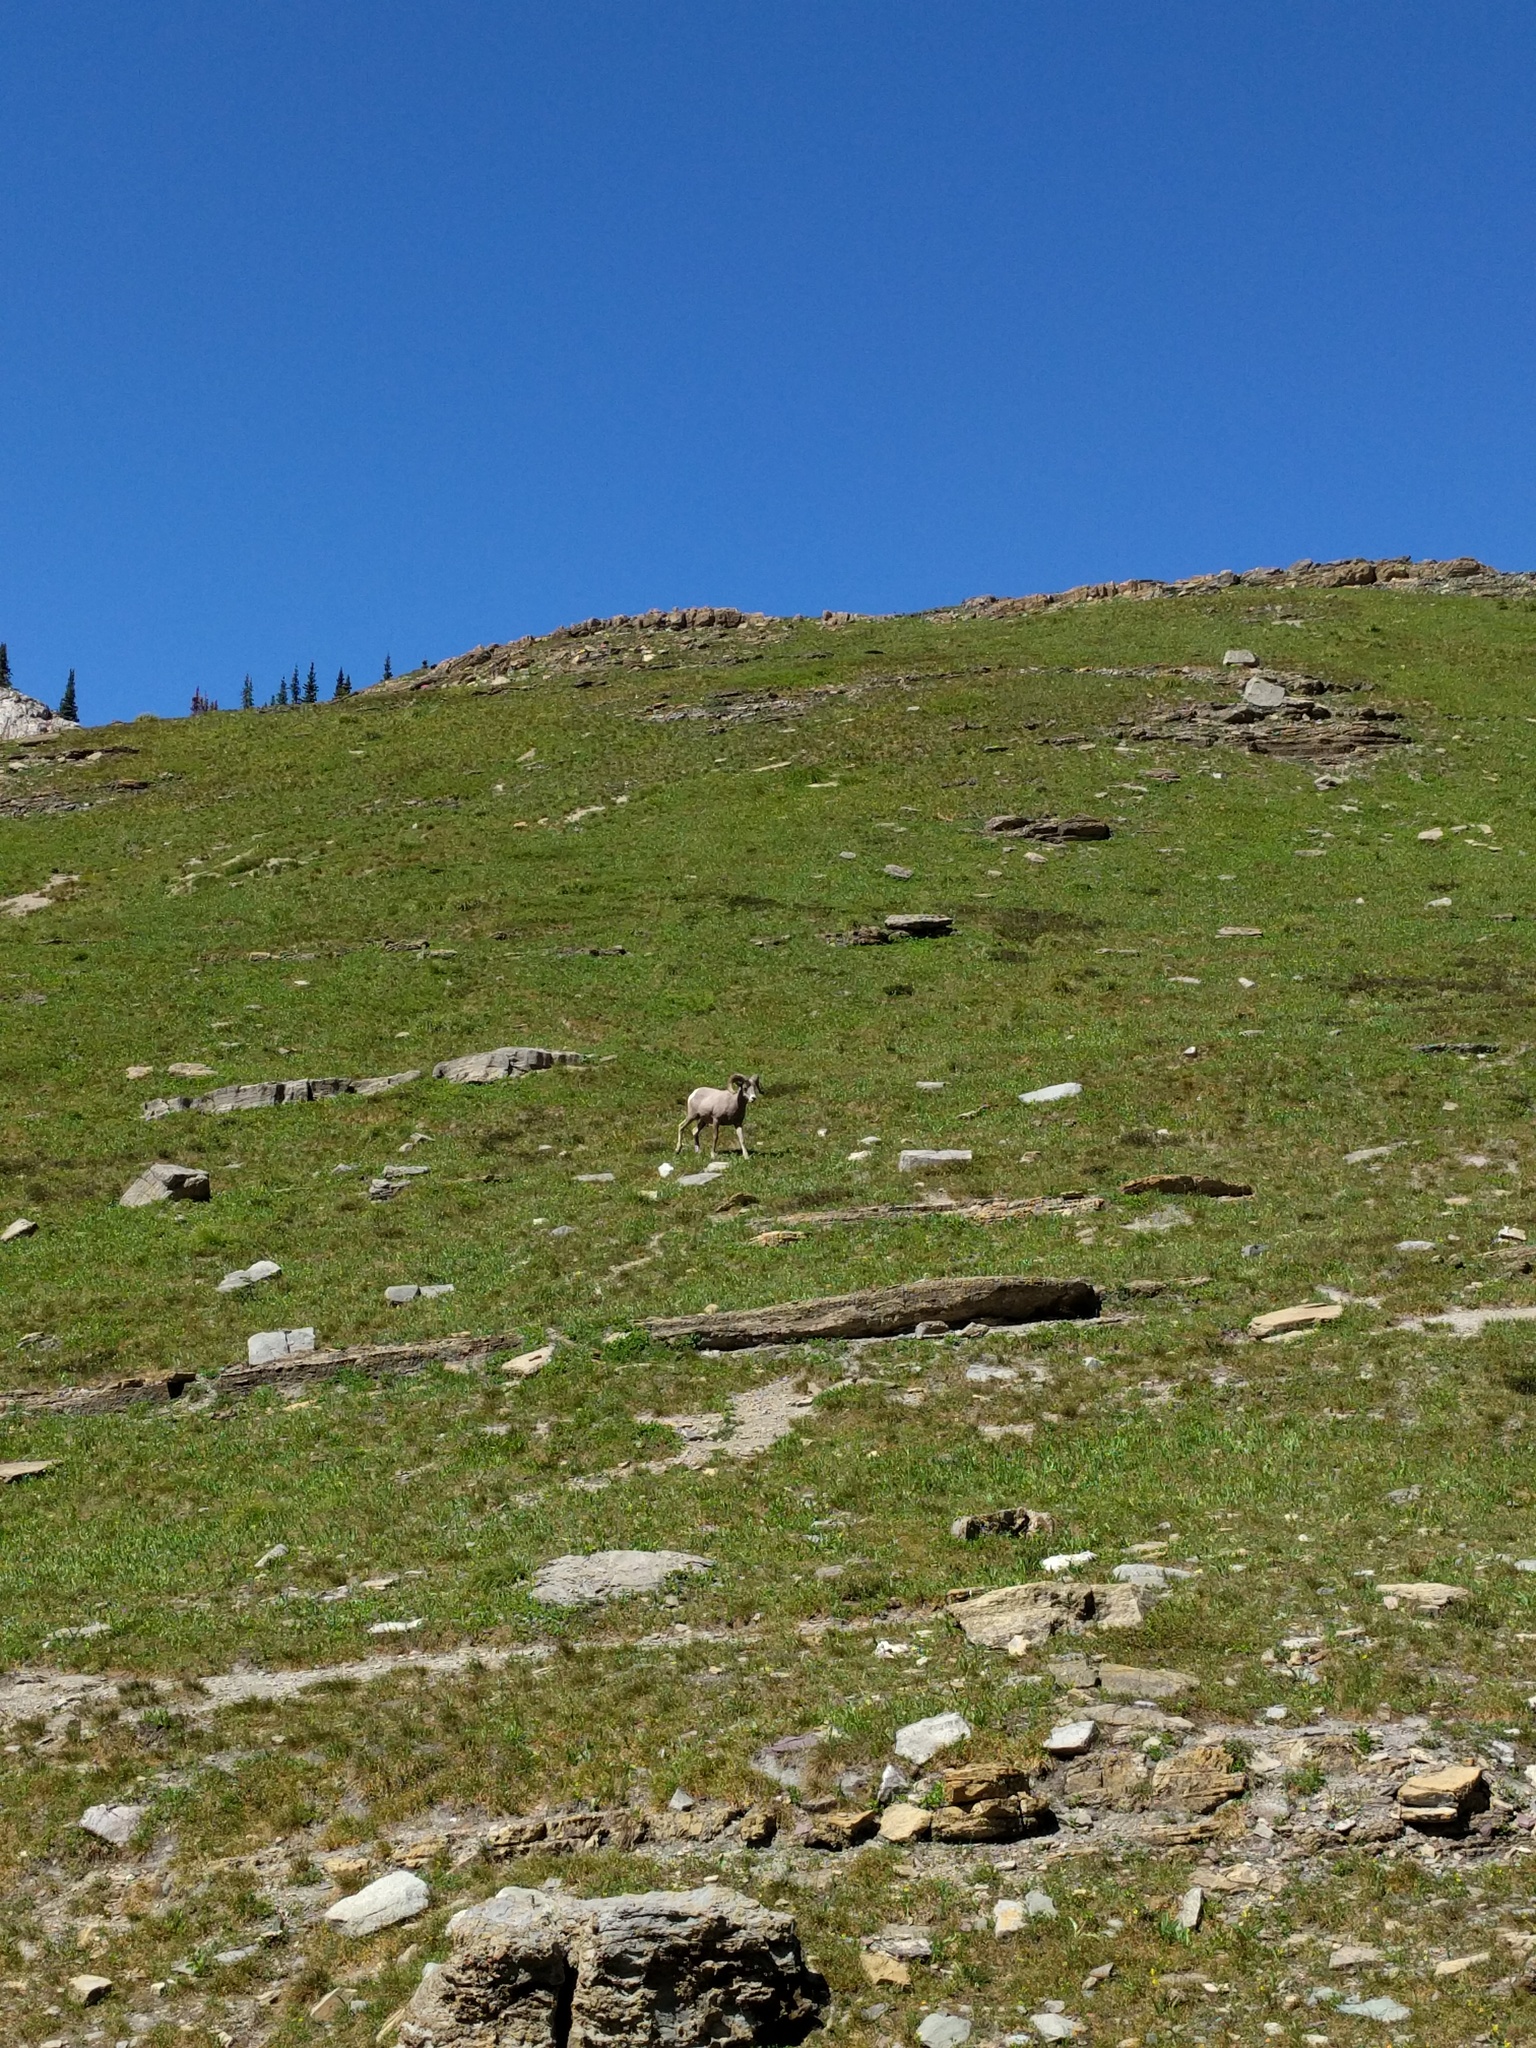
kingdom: Animalia
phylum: Chordata
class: Mammalia
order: Artiodactyla
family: Bovidae
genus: Ovis
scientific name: Ovis canadensis
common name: Bighorn sheep
